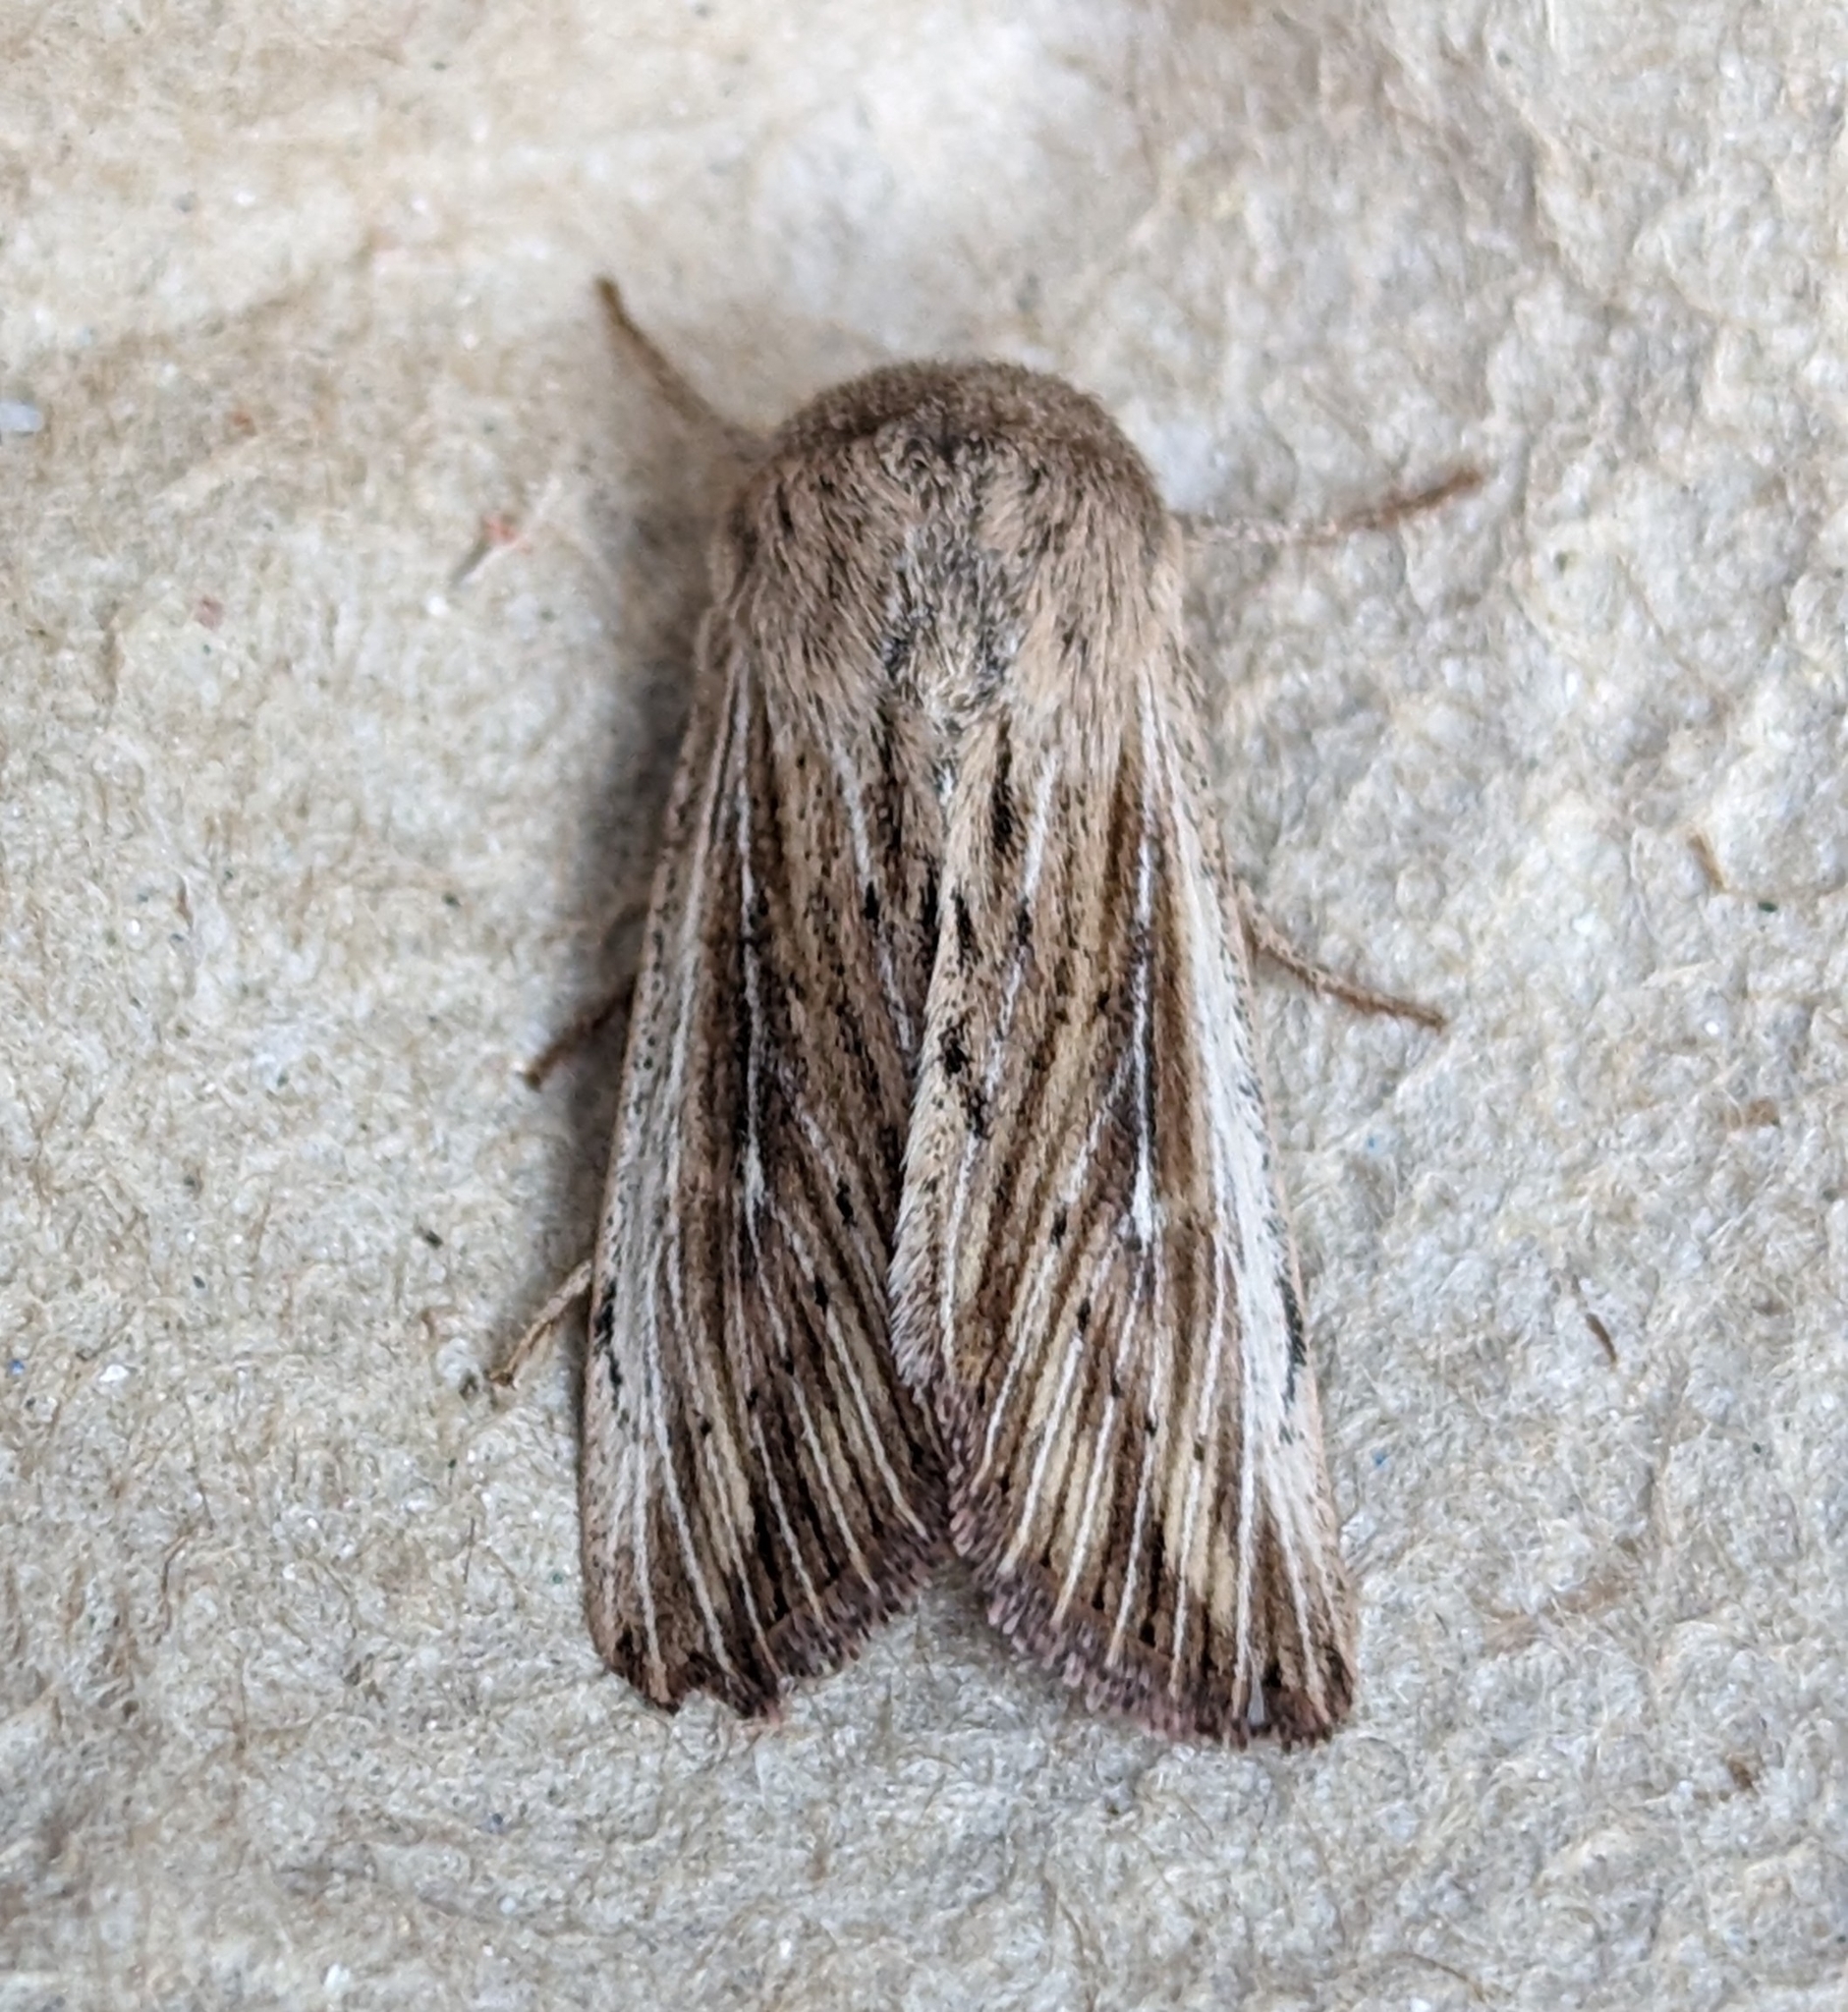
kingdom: Animalia
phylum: Arthropoda
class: Insecta
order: Lepidoptera
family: Noctuidae
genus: Leucania
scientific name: Leucania insueta
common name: Heterodox wainscot moth
